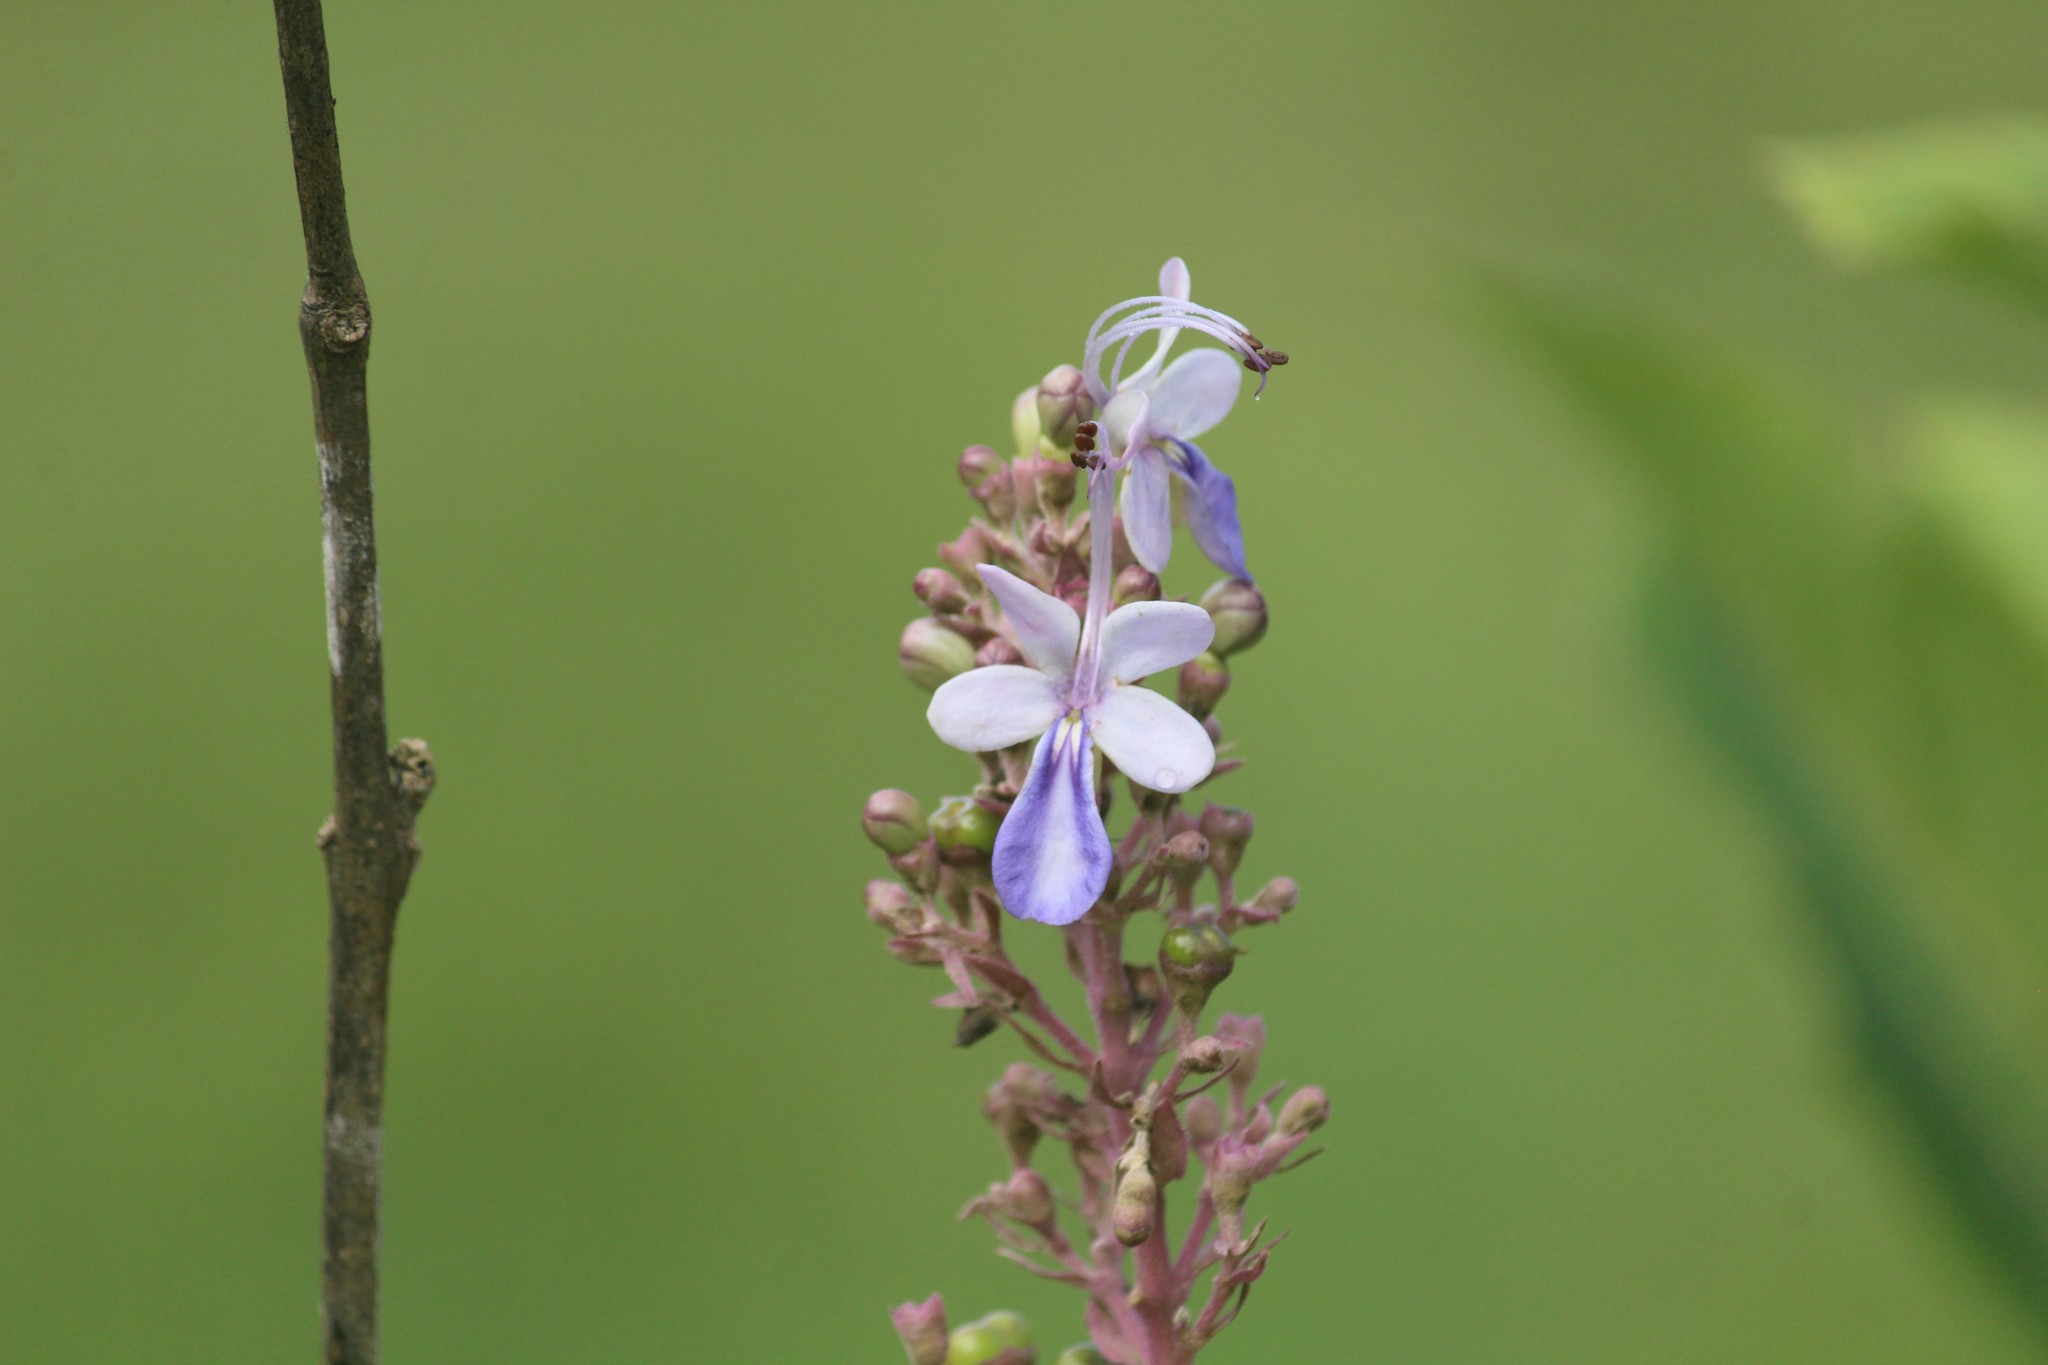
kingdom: Plantae
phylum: Tracheophyta
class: Magnoliopsida
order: Lamiales
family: Lamiaceae
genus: Rotheca
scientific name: Rotheca serrata
